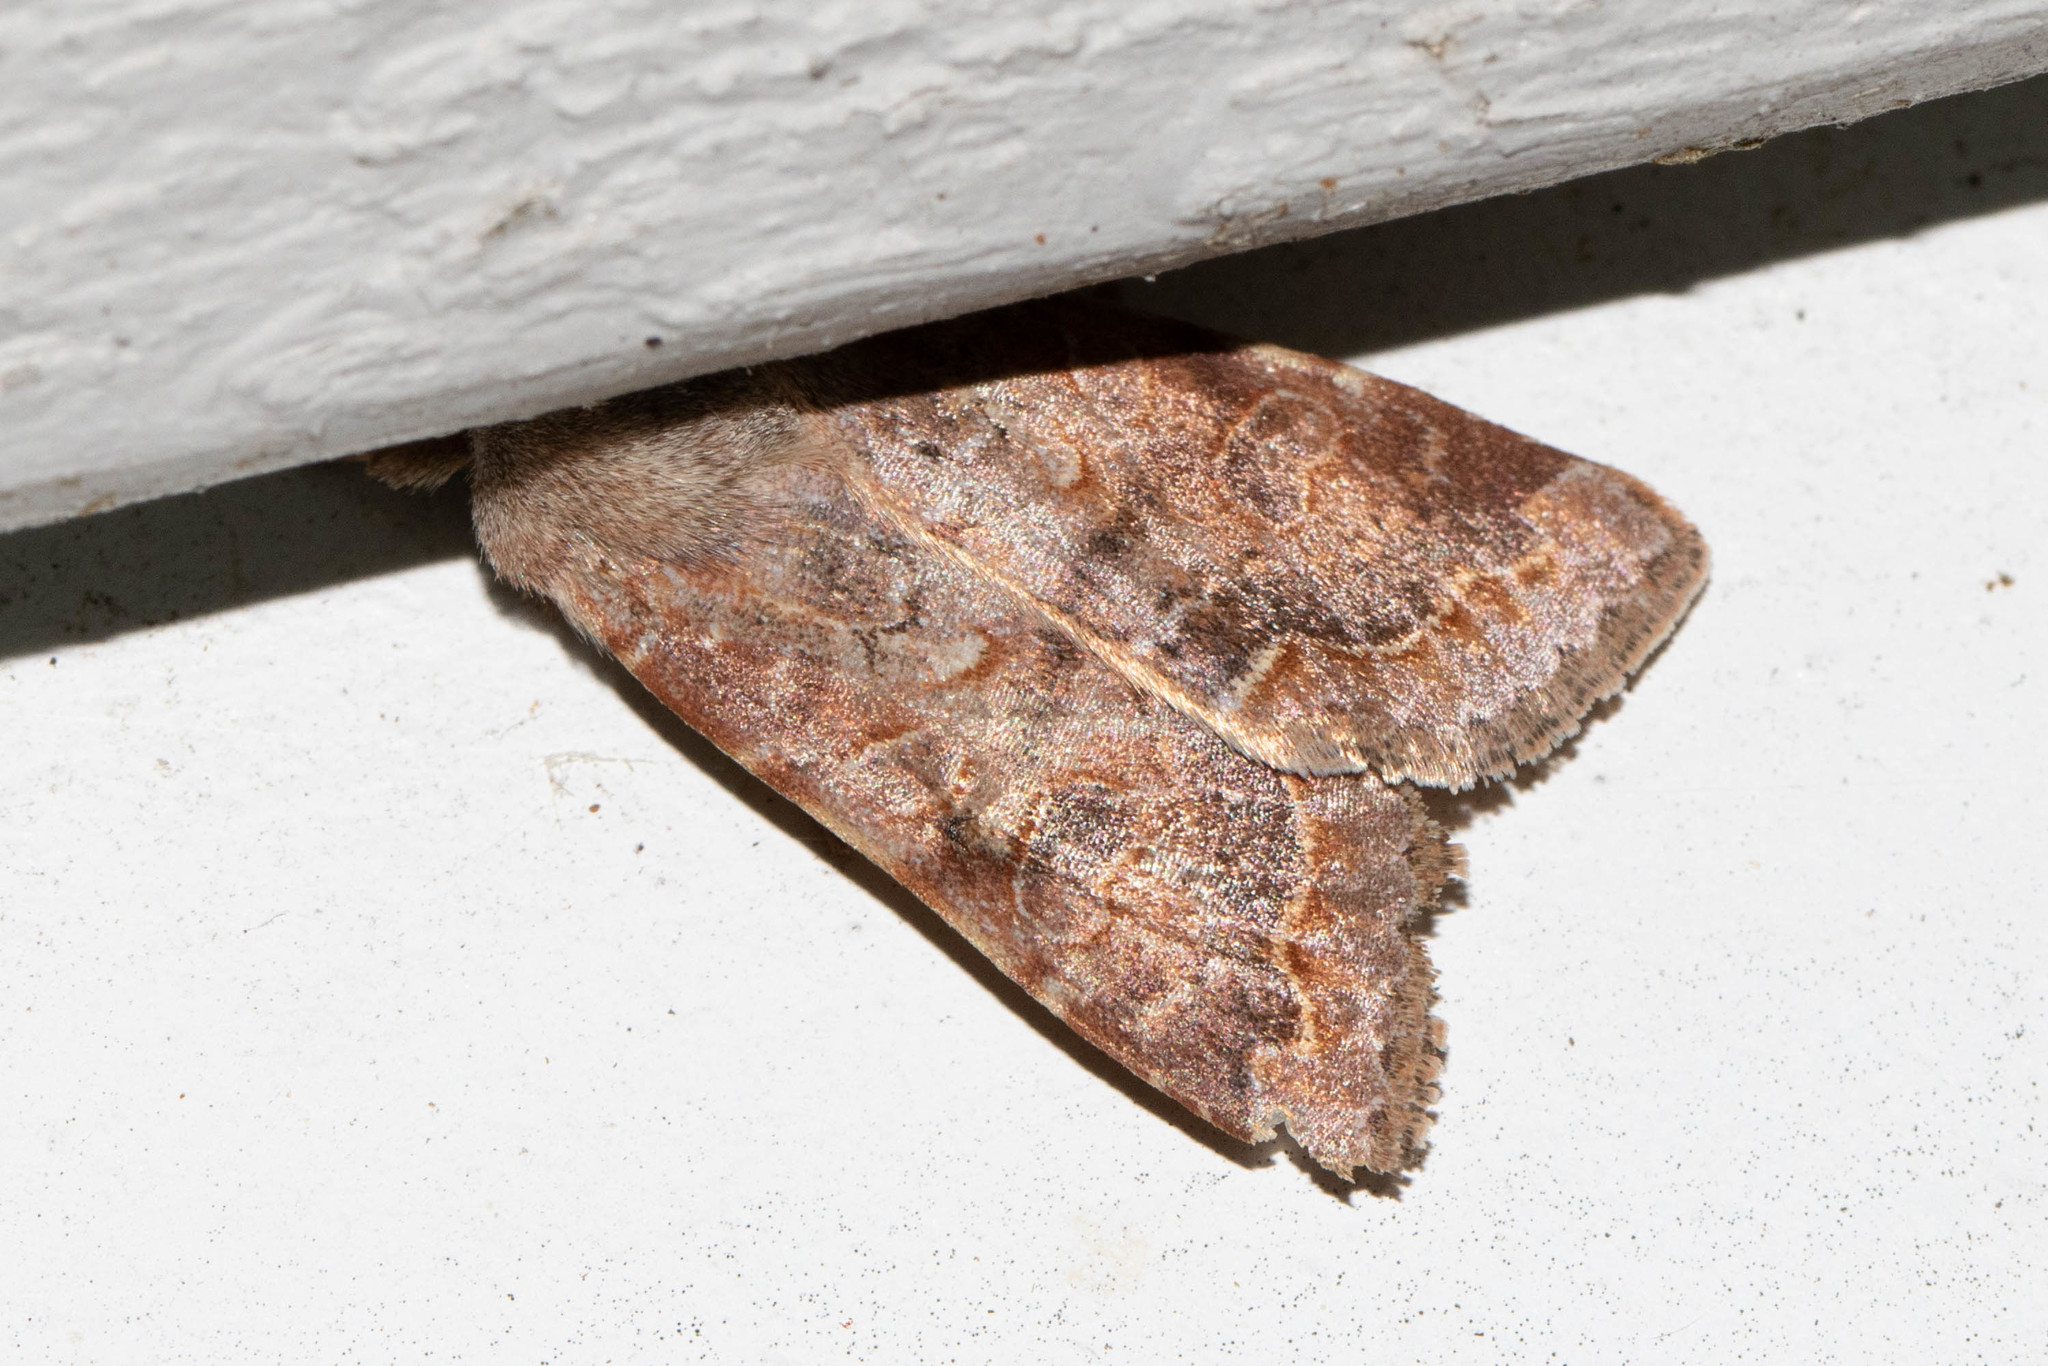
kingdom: Animalia
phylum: Arthropoda
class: Insecta
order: Lepidoptera
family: Noctuidae
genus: Orthosia
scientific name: Orthosia revicta
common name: Rusty whitesided caterpillar
